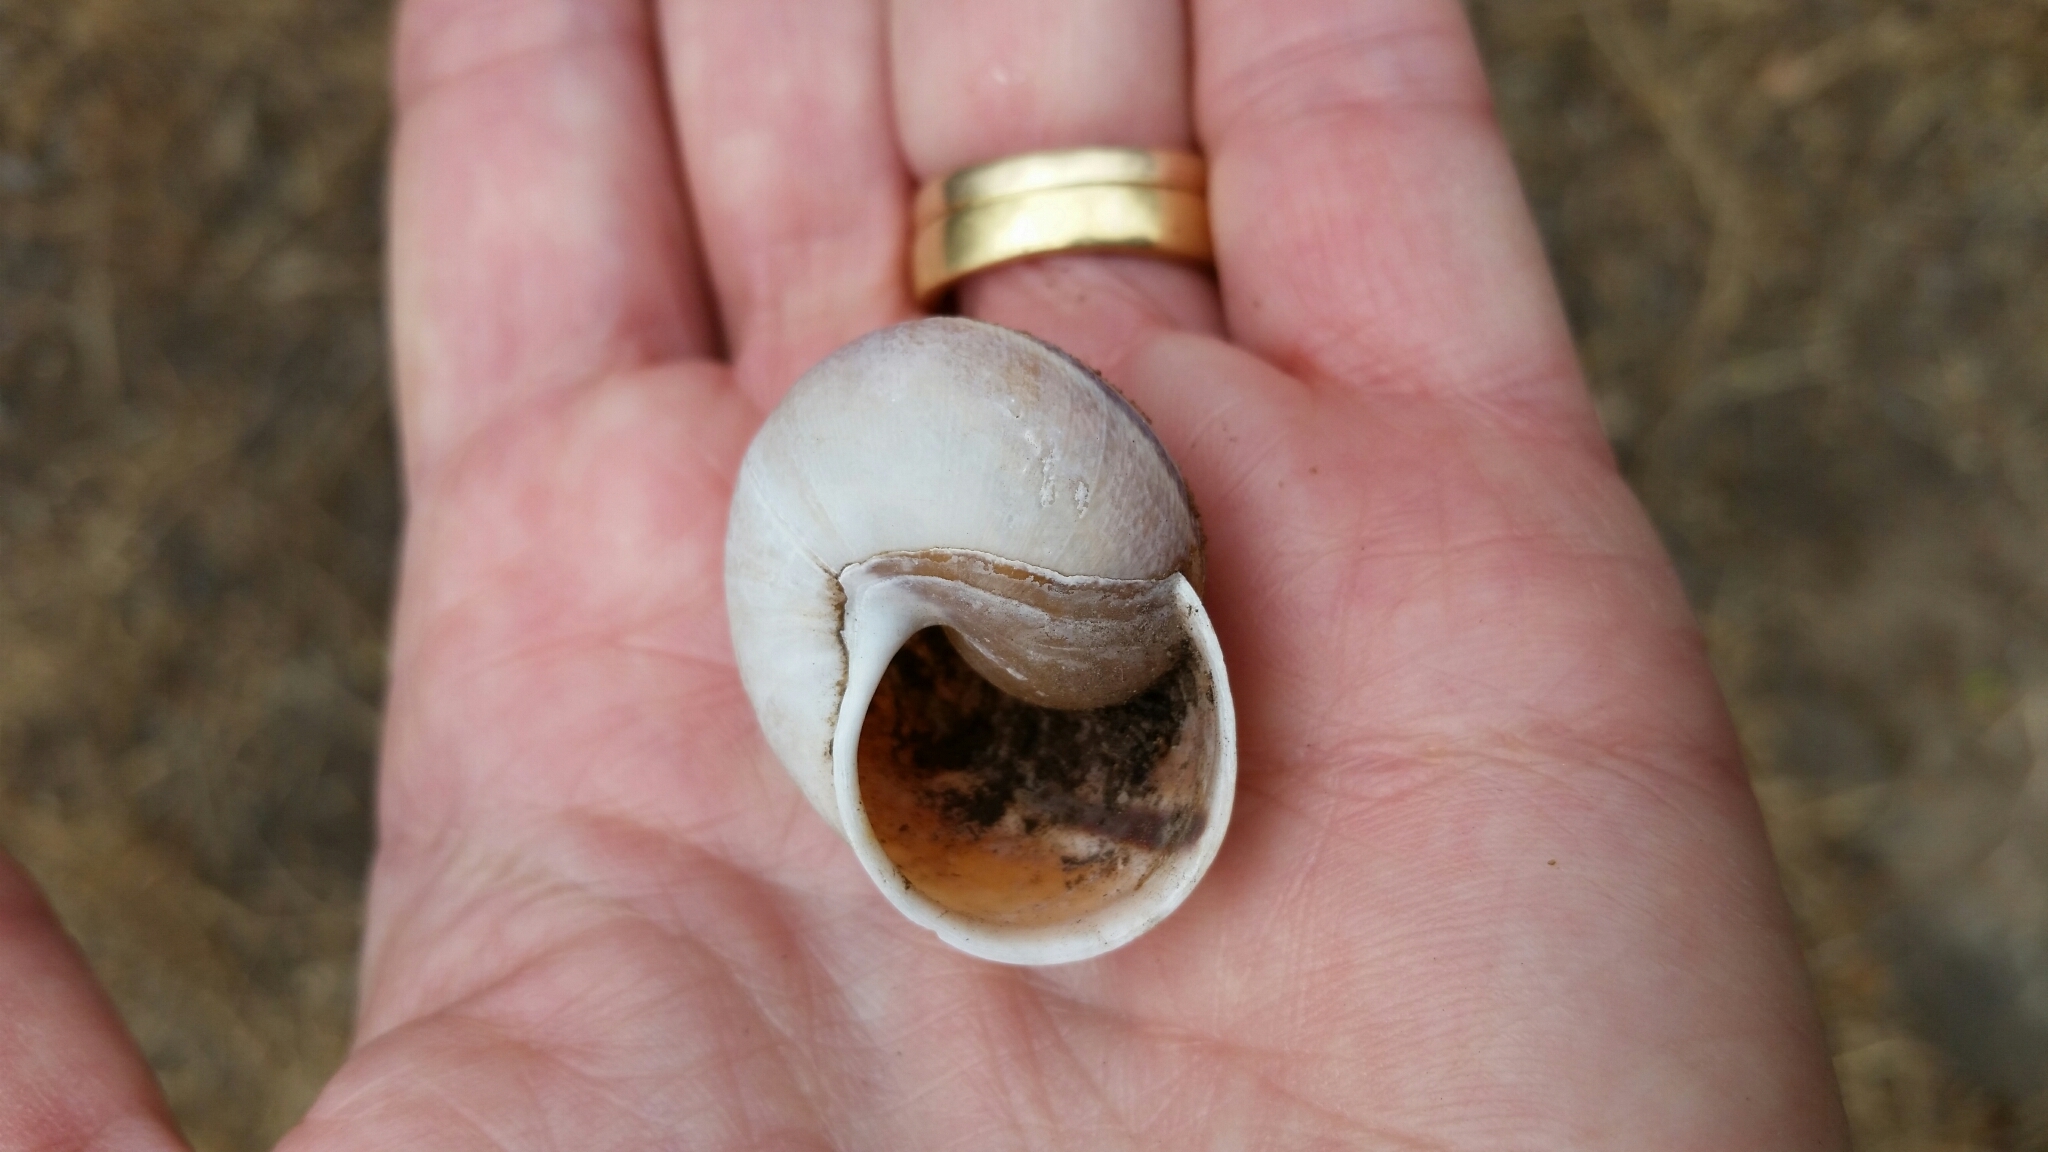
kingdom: Animalia
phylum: Mollusca
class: Gastropoda
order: Stylommatophora
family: Xanthonychidae
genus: Helminthoglypta
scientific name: Helminthoglypta tudiculata
